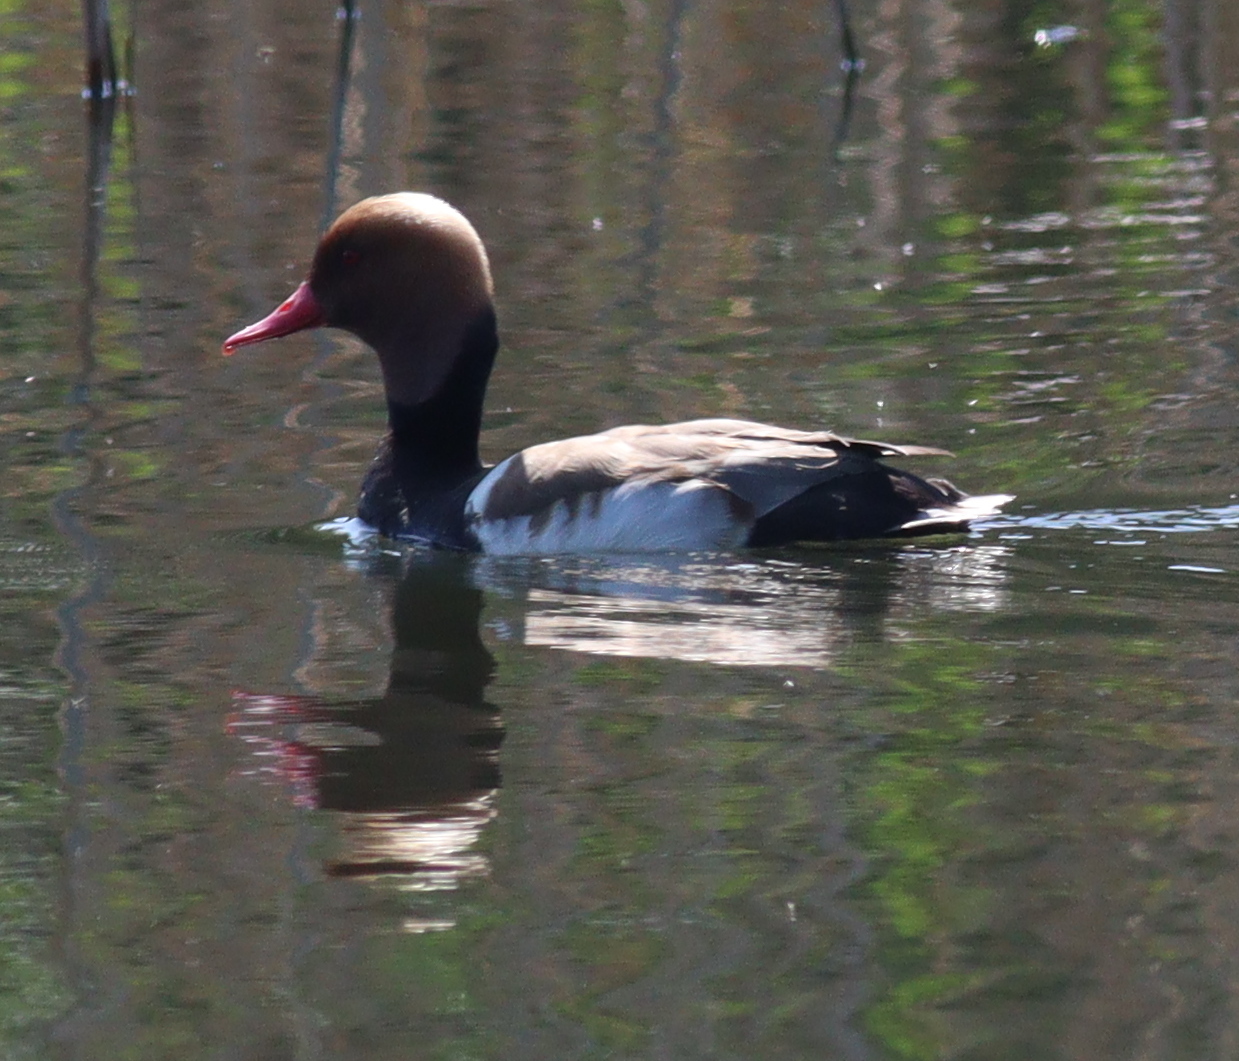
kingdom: Animalia
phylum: Chordata
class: Aves
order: Anseriformes
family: Anatidae
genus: Netta
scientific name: Netta rufina
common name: Red-crested pochard
